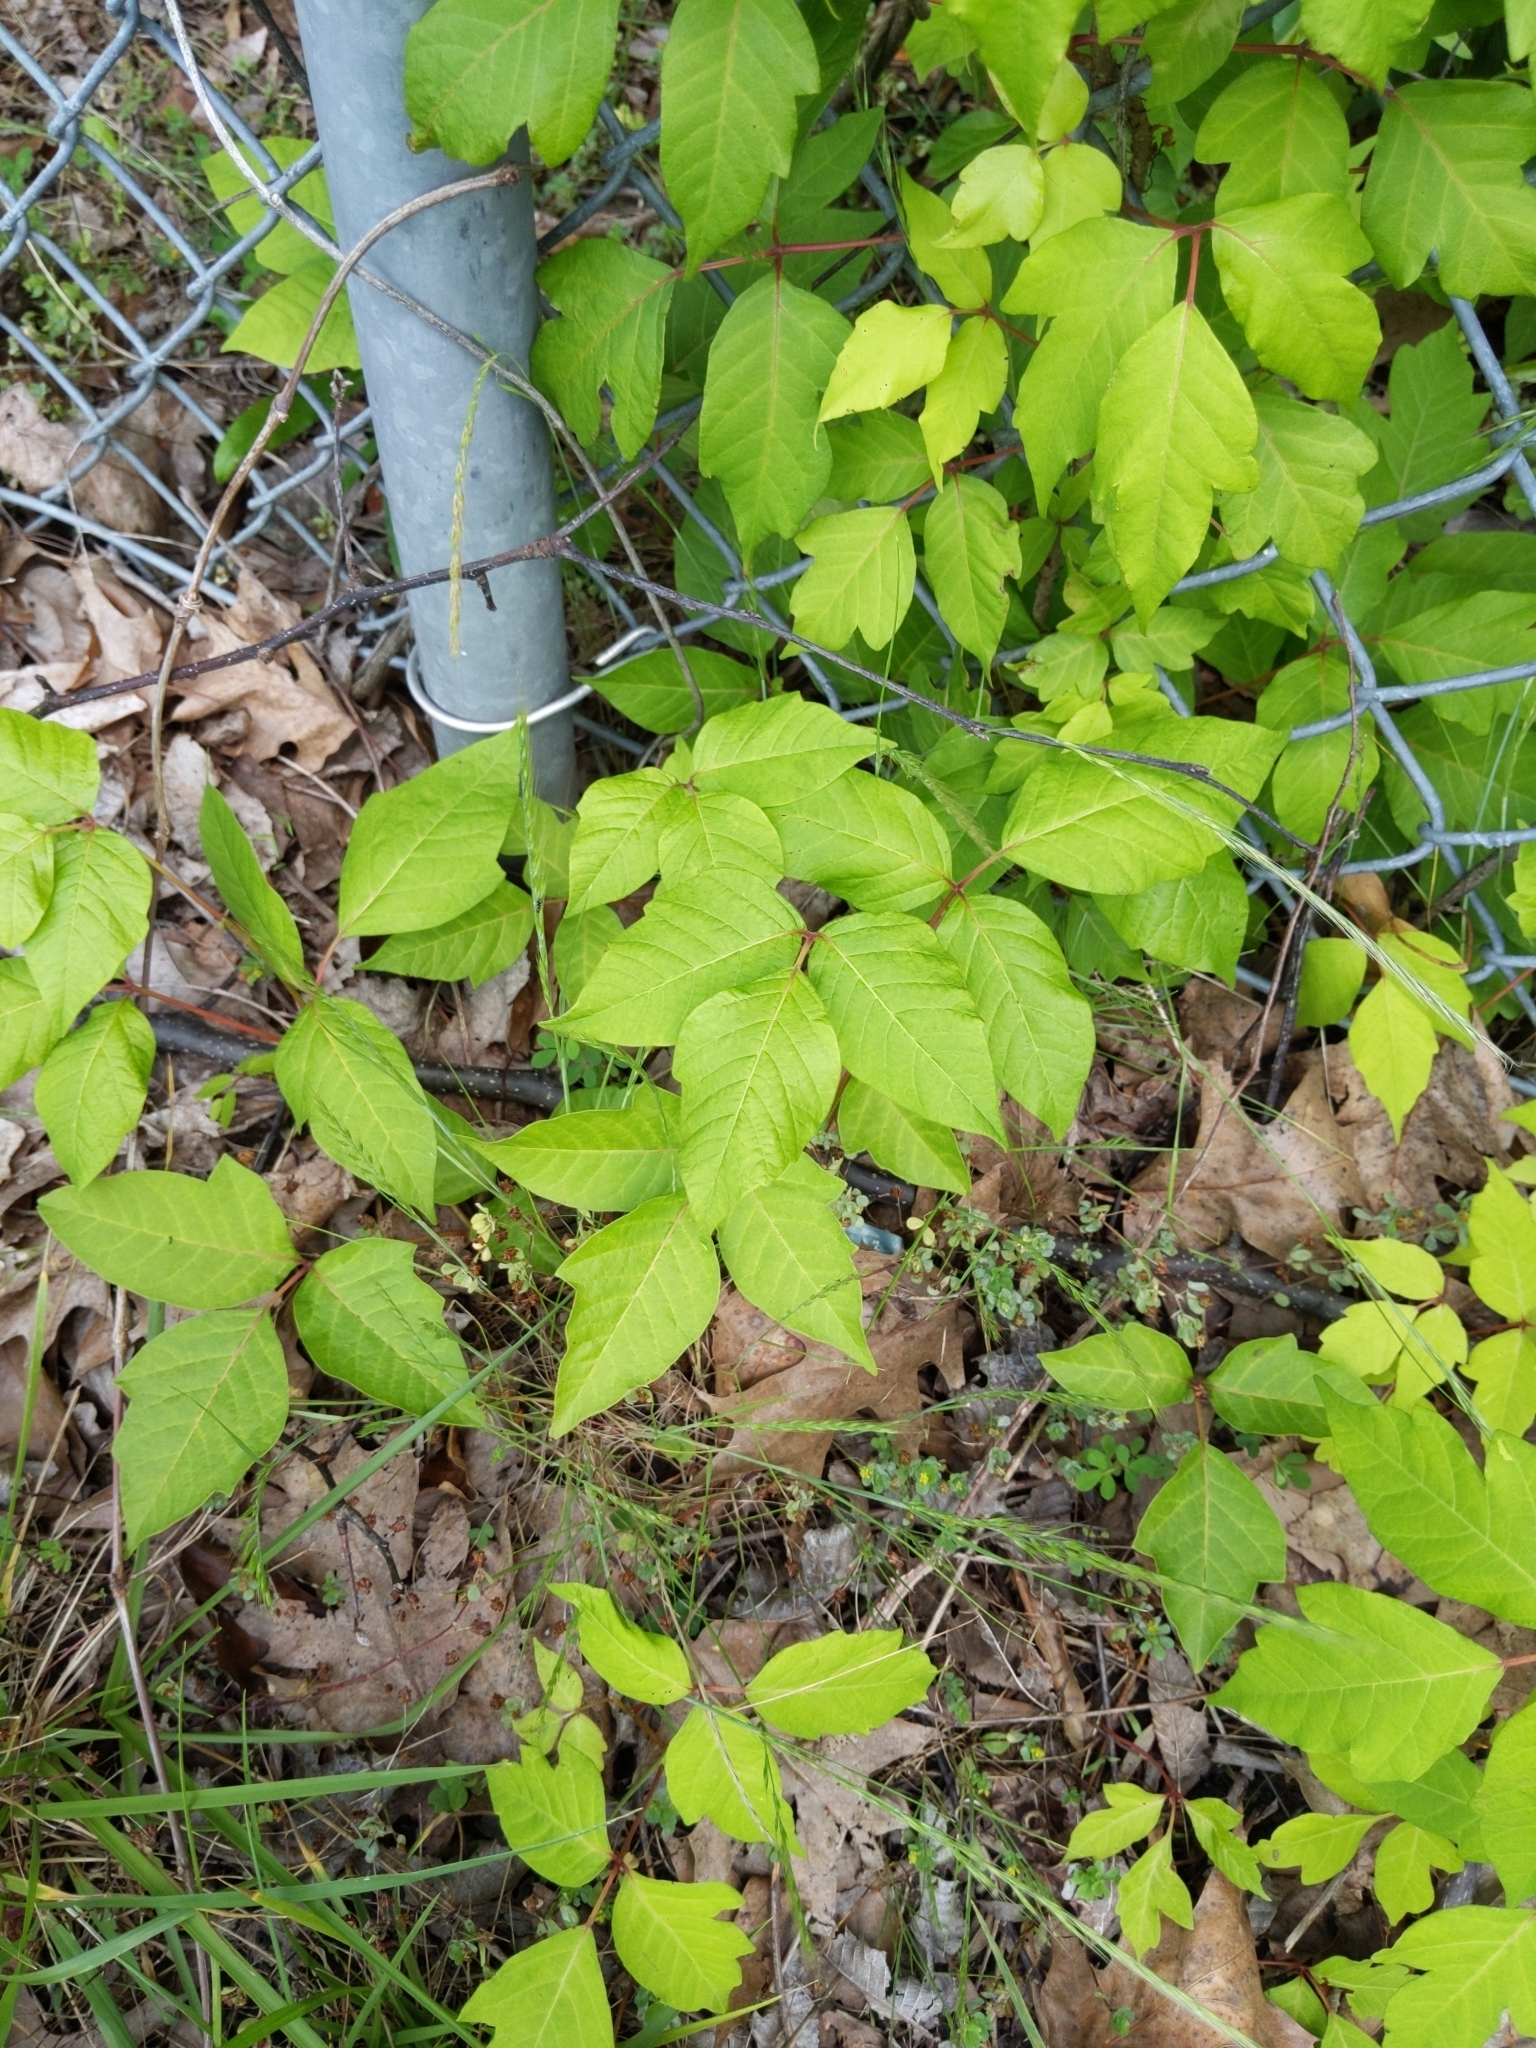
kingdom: Plantae
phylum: Tracheophyta
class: Magnoliopsida
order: Sapindales
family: Anacardiaceae
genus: Toxicodendron
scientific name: Toxicodendron radicans
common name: Poison ivy
